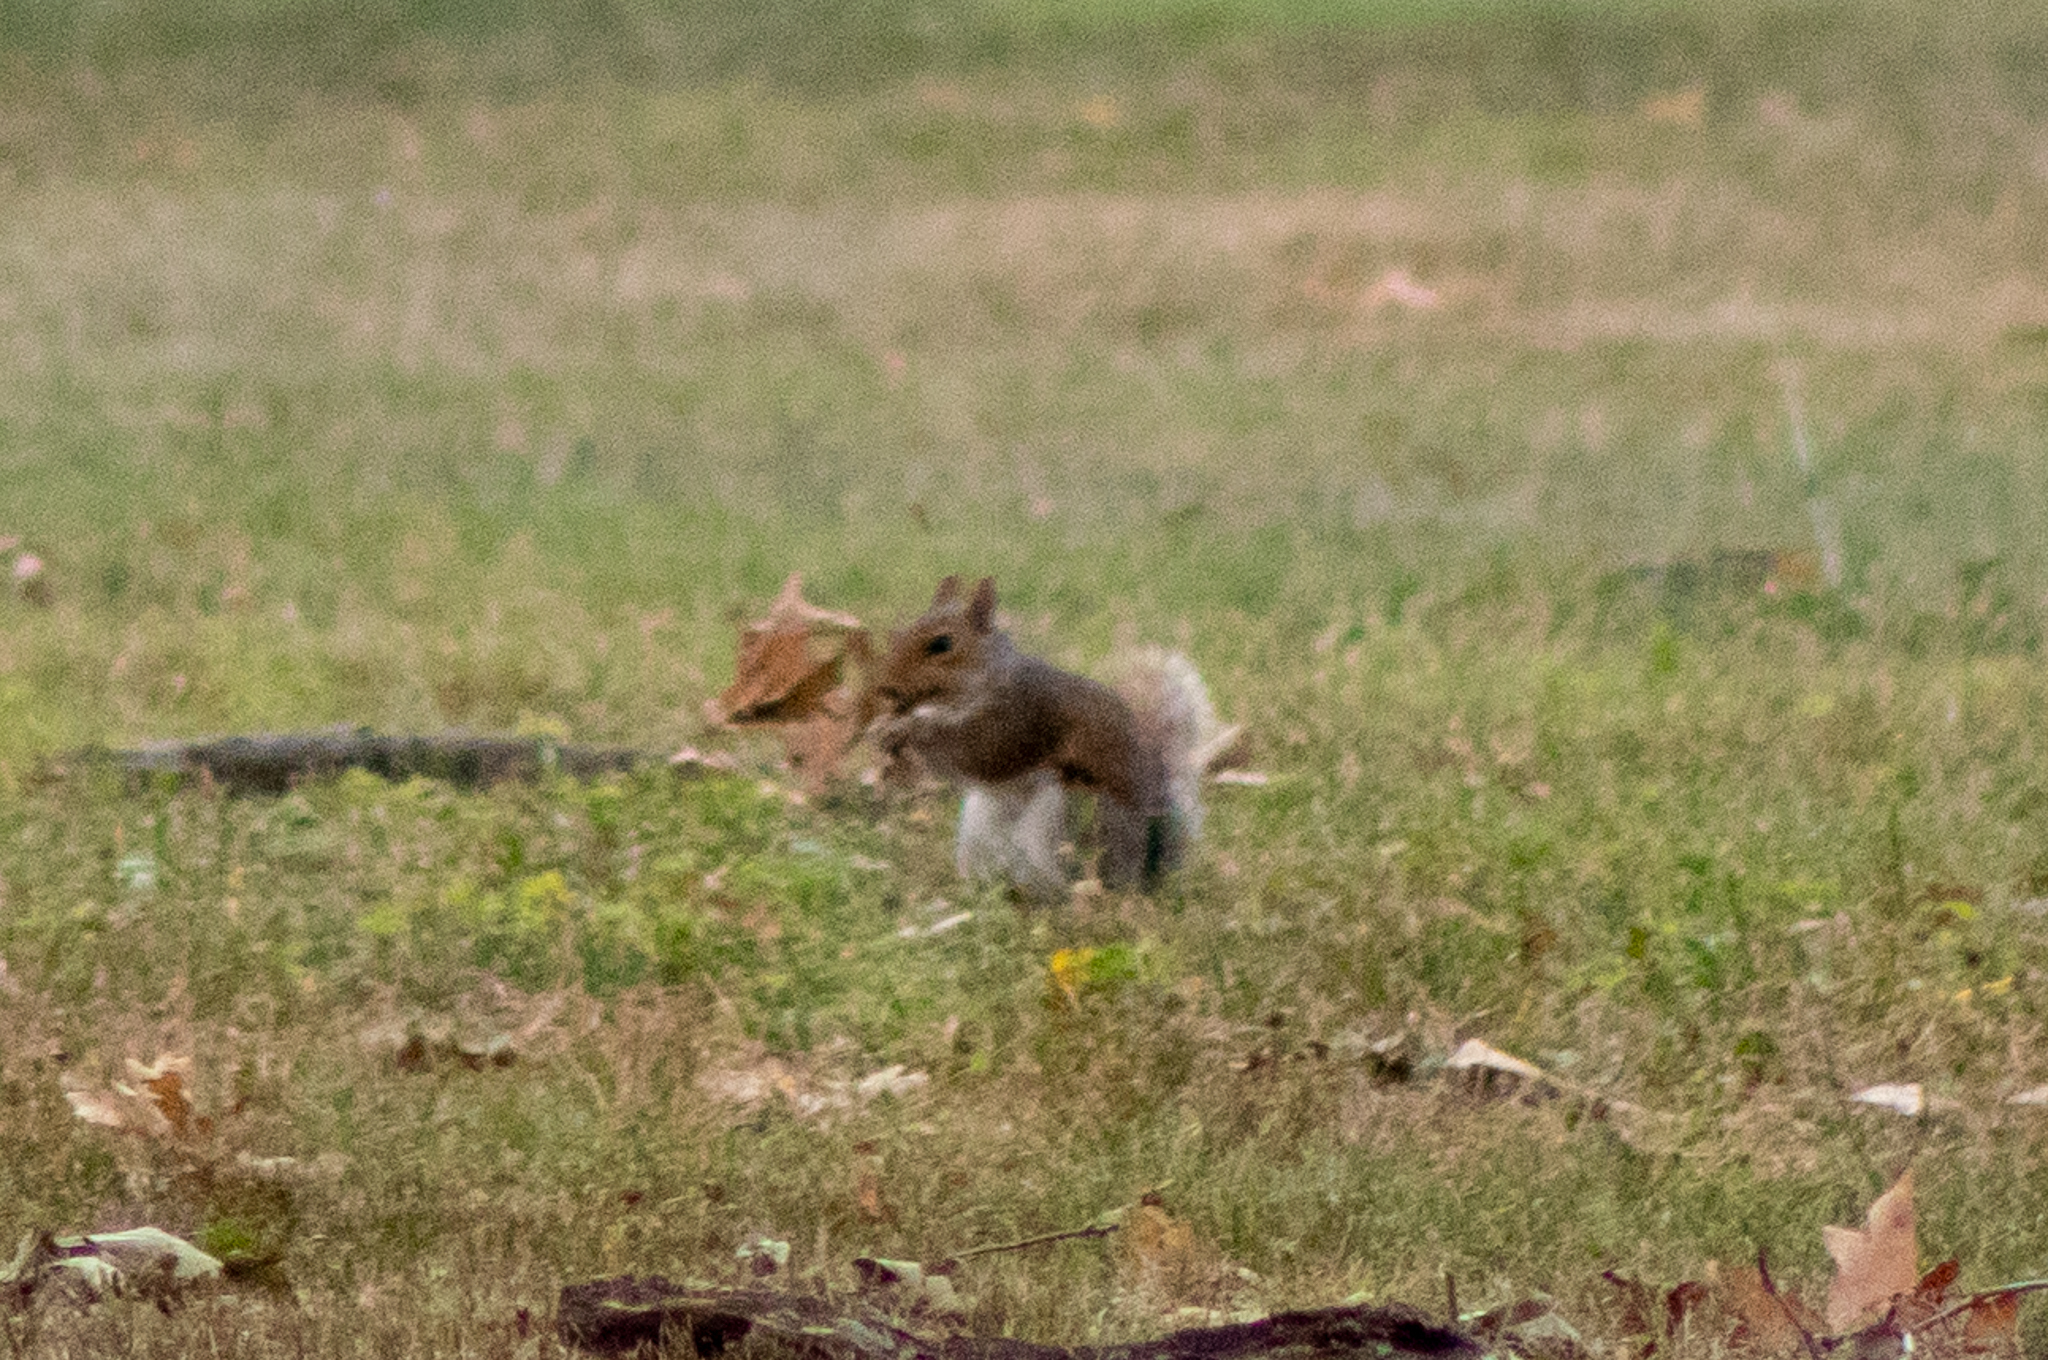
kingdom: Animalia
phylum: Chordata
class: Mammalia
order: Rodentia
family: Sciuridae
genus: Sciurus
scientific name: Sciurus carolinensis
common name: Eastern gray squirrel
